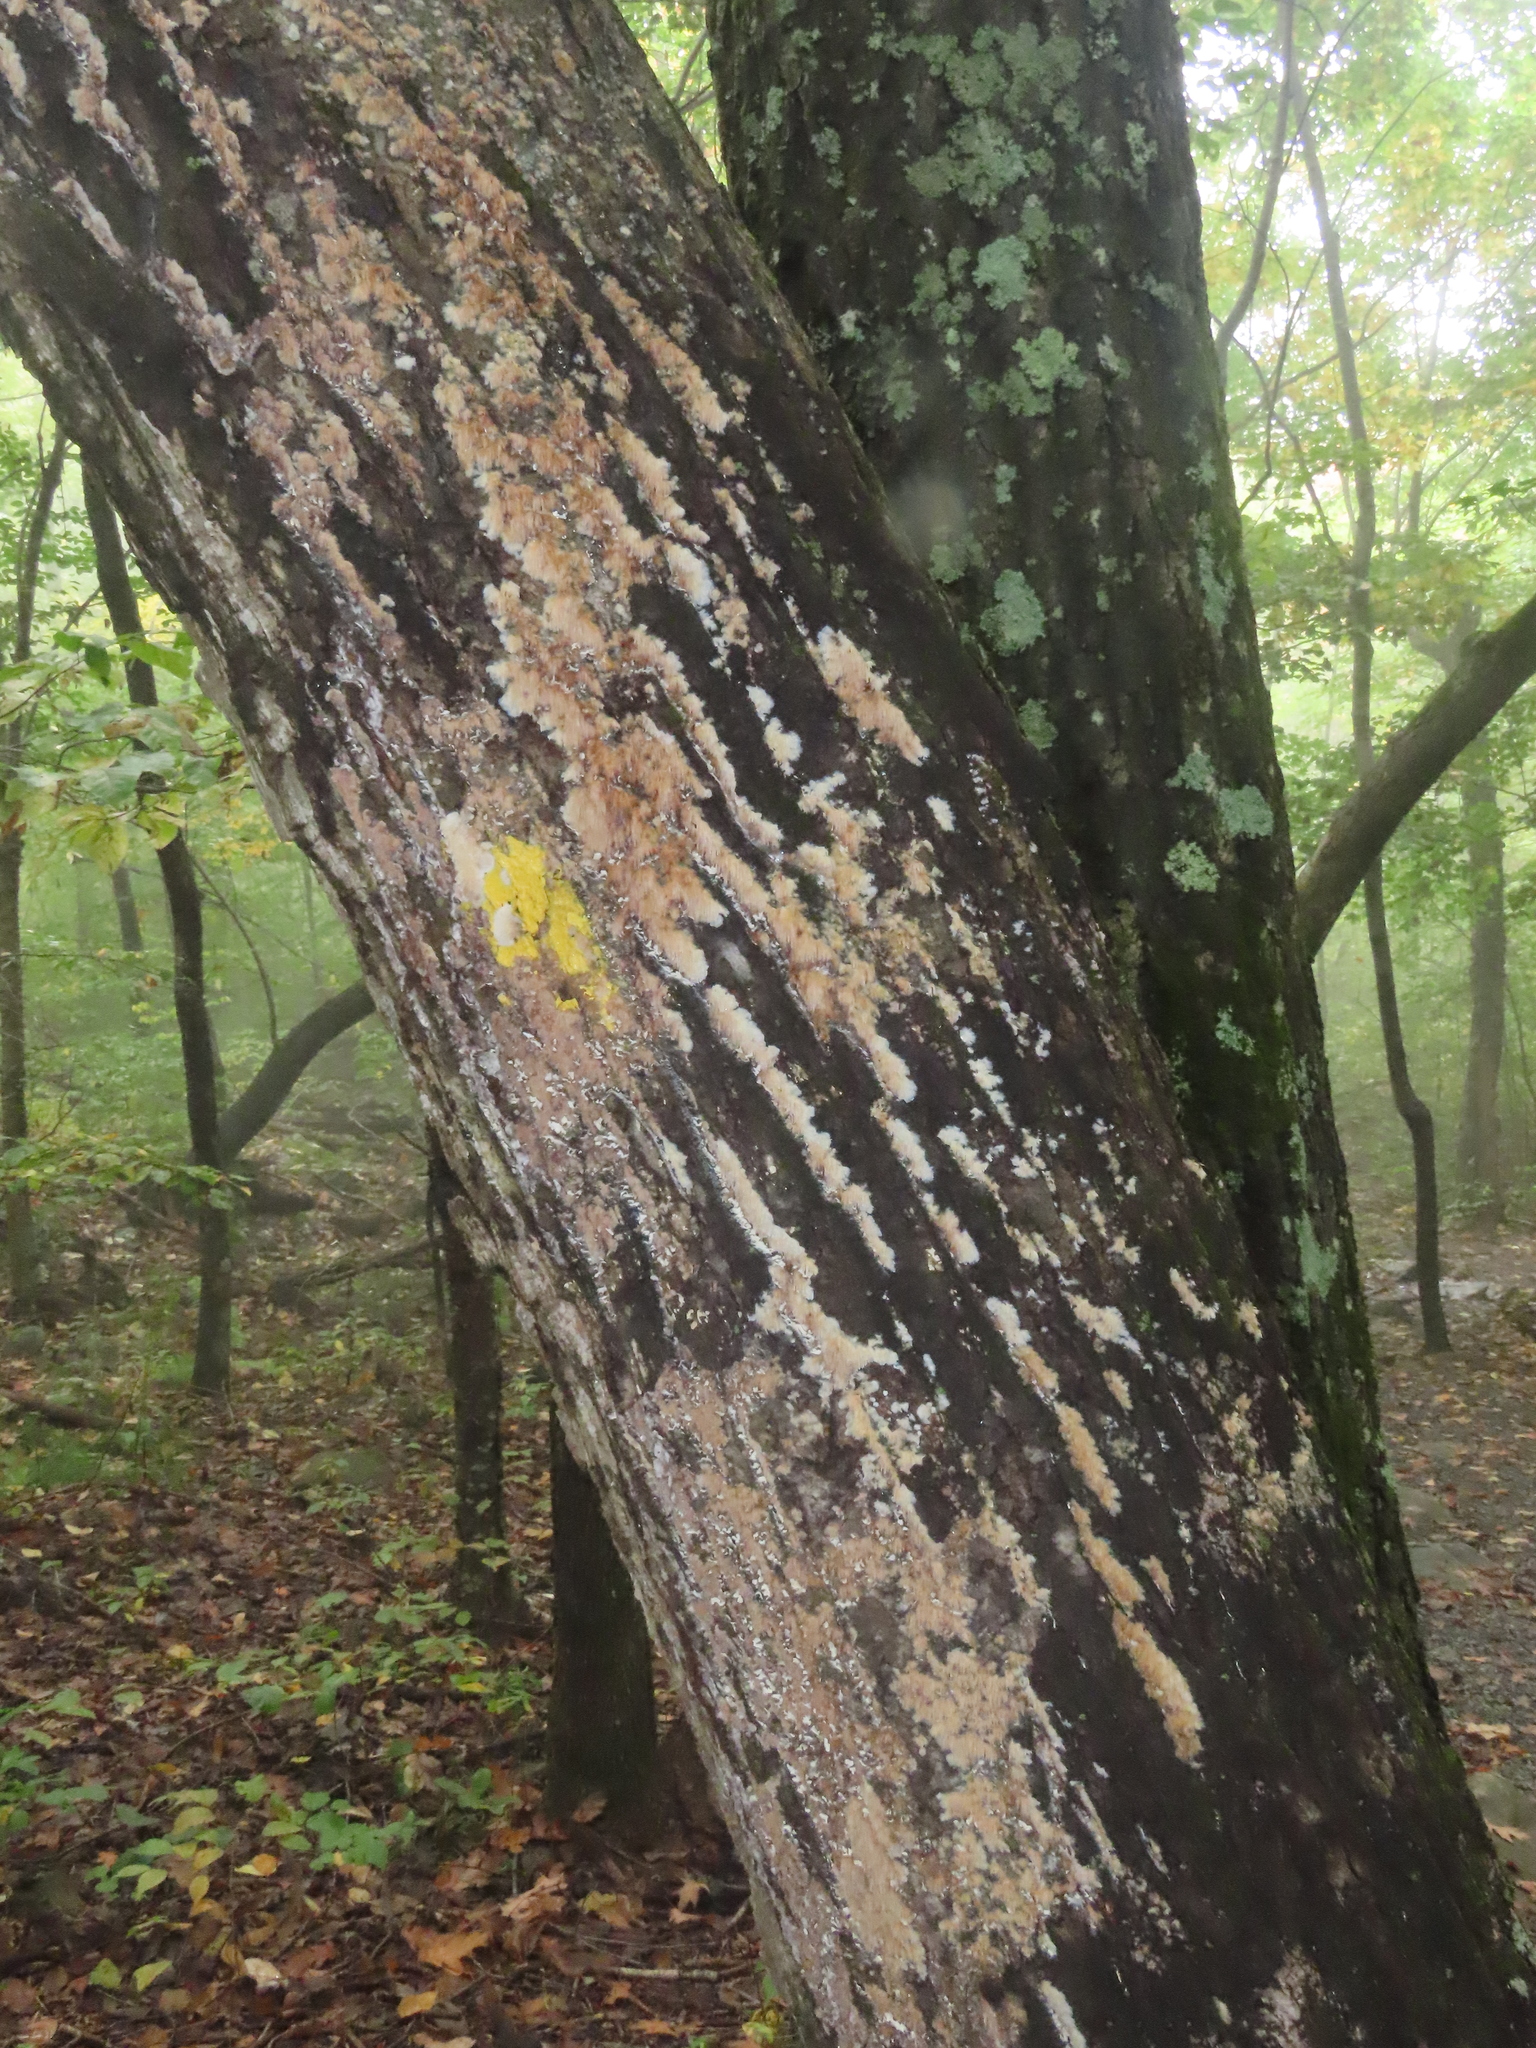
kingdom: Fungi
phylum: Basidiomycota
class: Agaricomycetes
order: Agaricales
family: Radulomycetaceae
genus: Radulomyces
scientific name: Radulomyces copelandii
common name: Asian beauty
